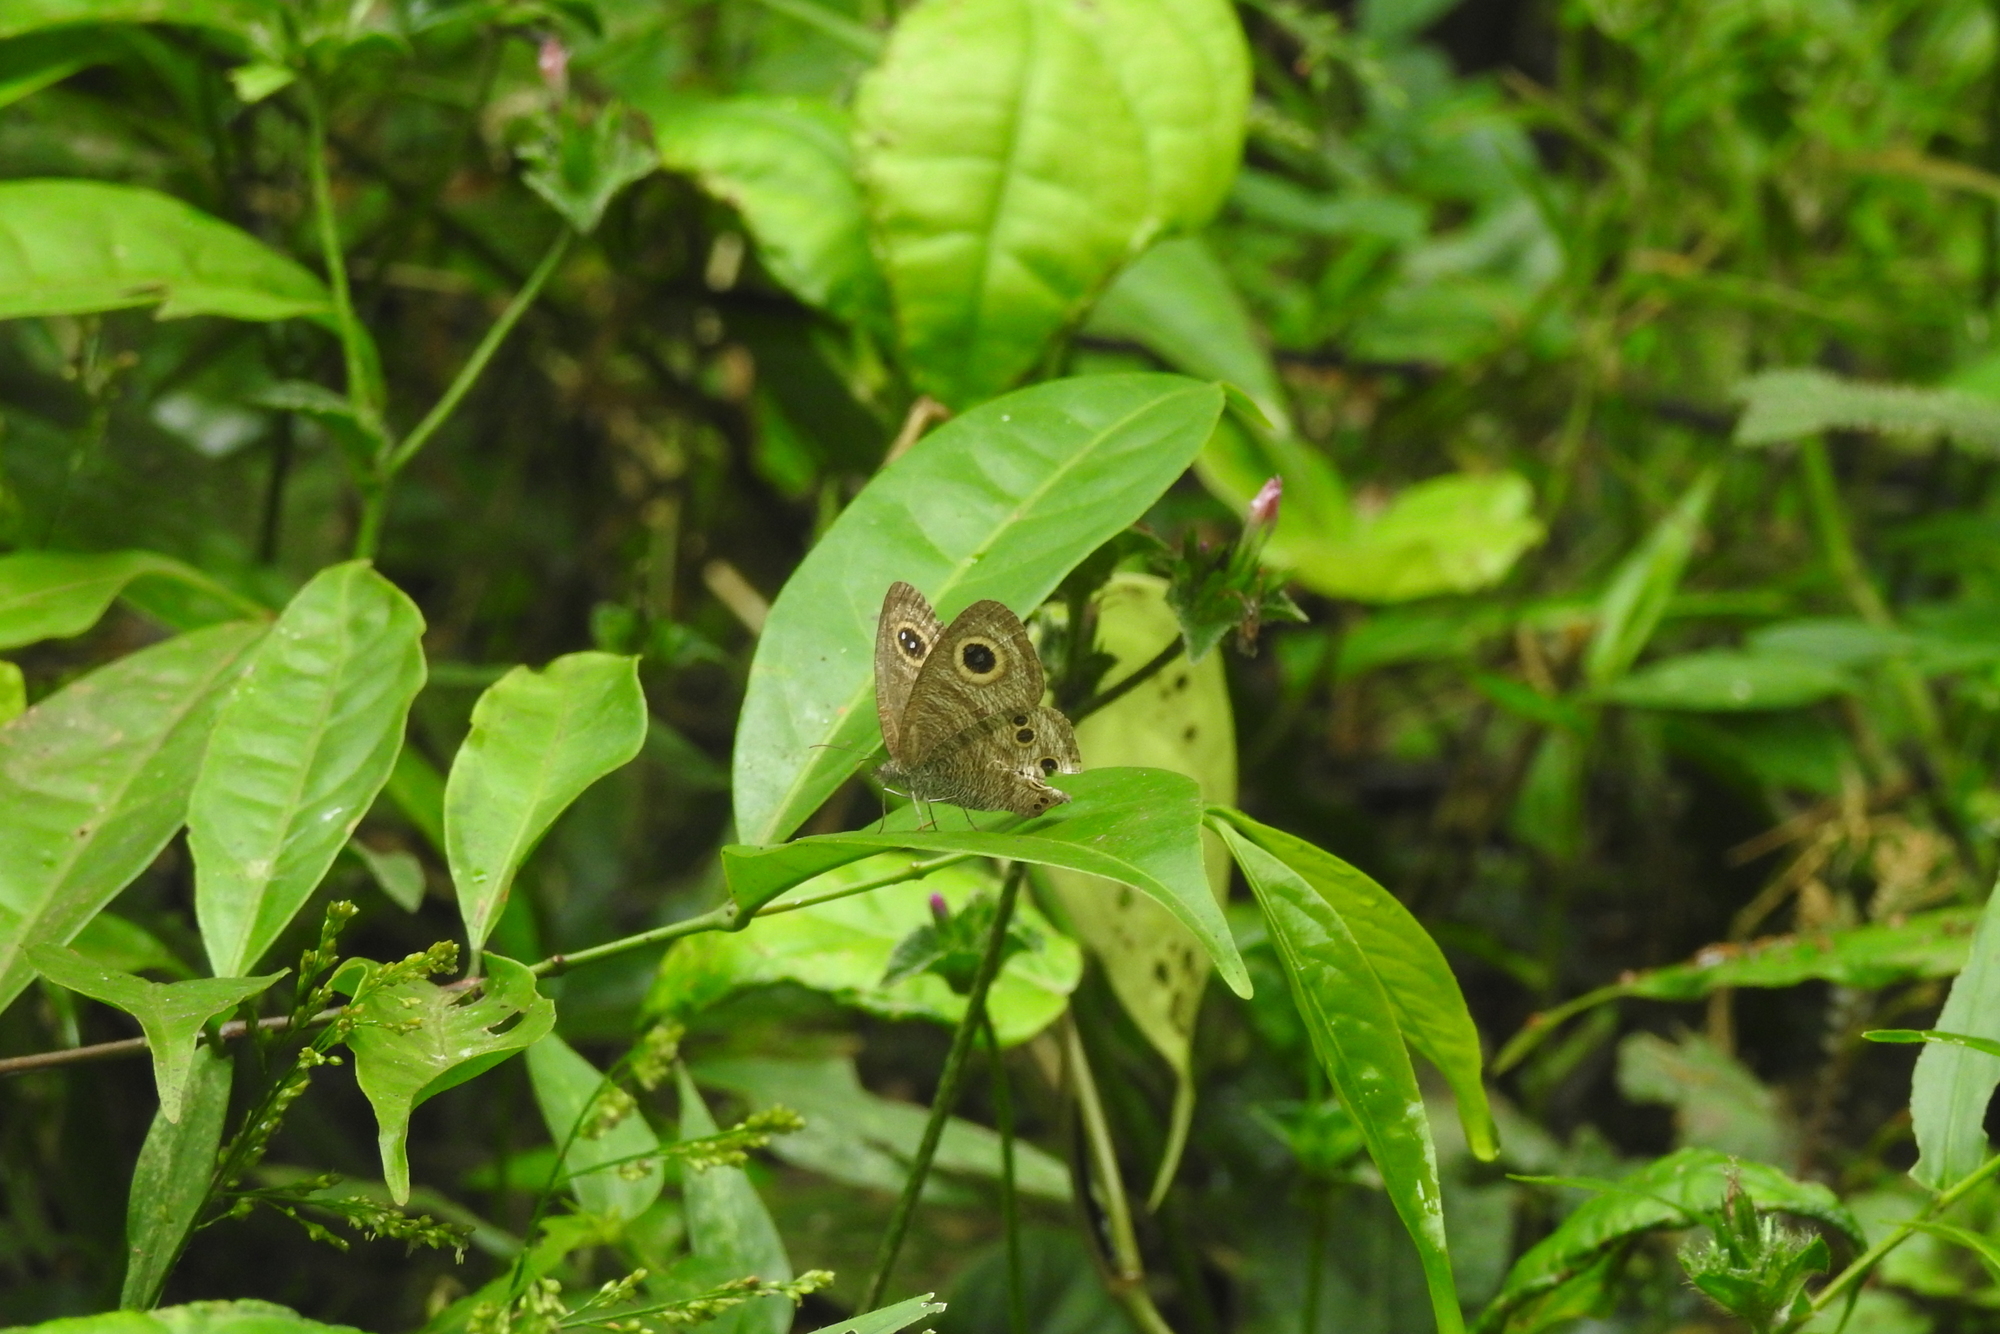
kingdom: Animalia
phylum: Arthropoda
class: Insecta
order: Lepidoptera
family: Nymphalidae
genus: Ypthima
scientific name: Ypthima baldus
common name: Common five-ring
